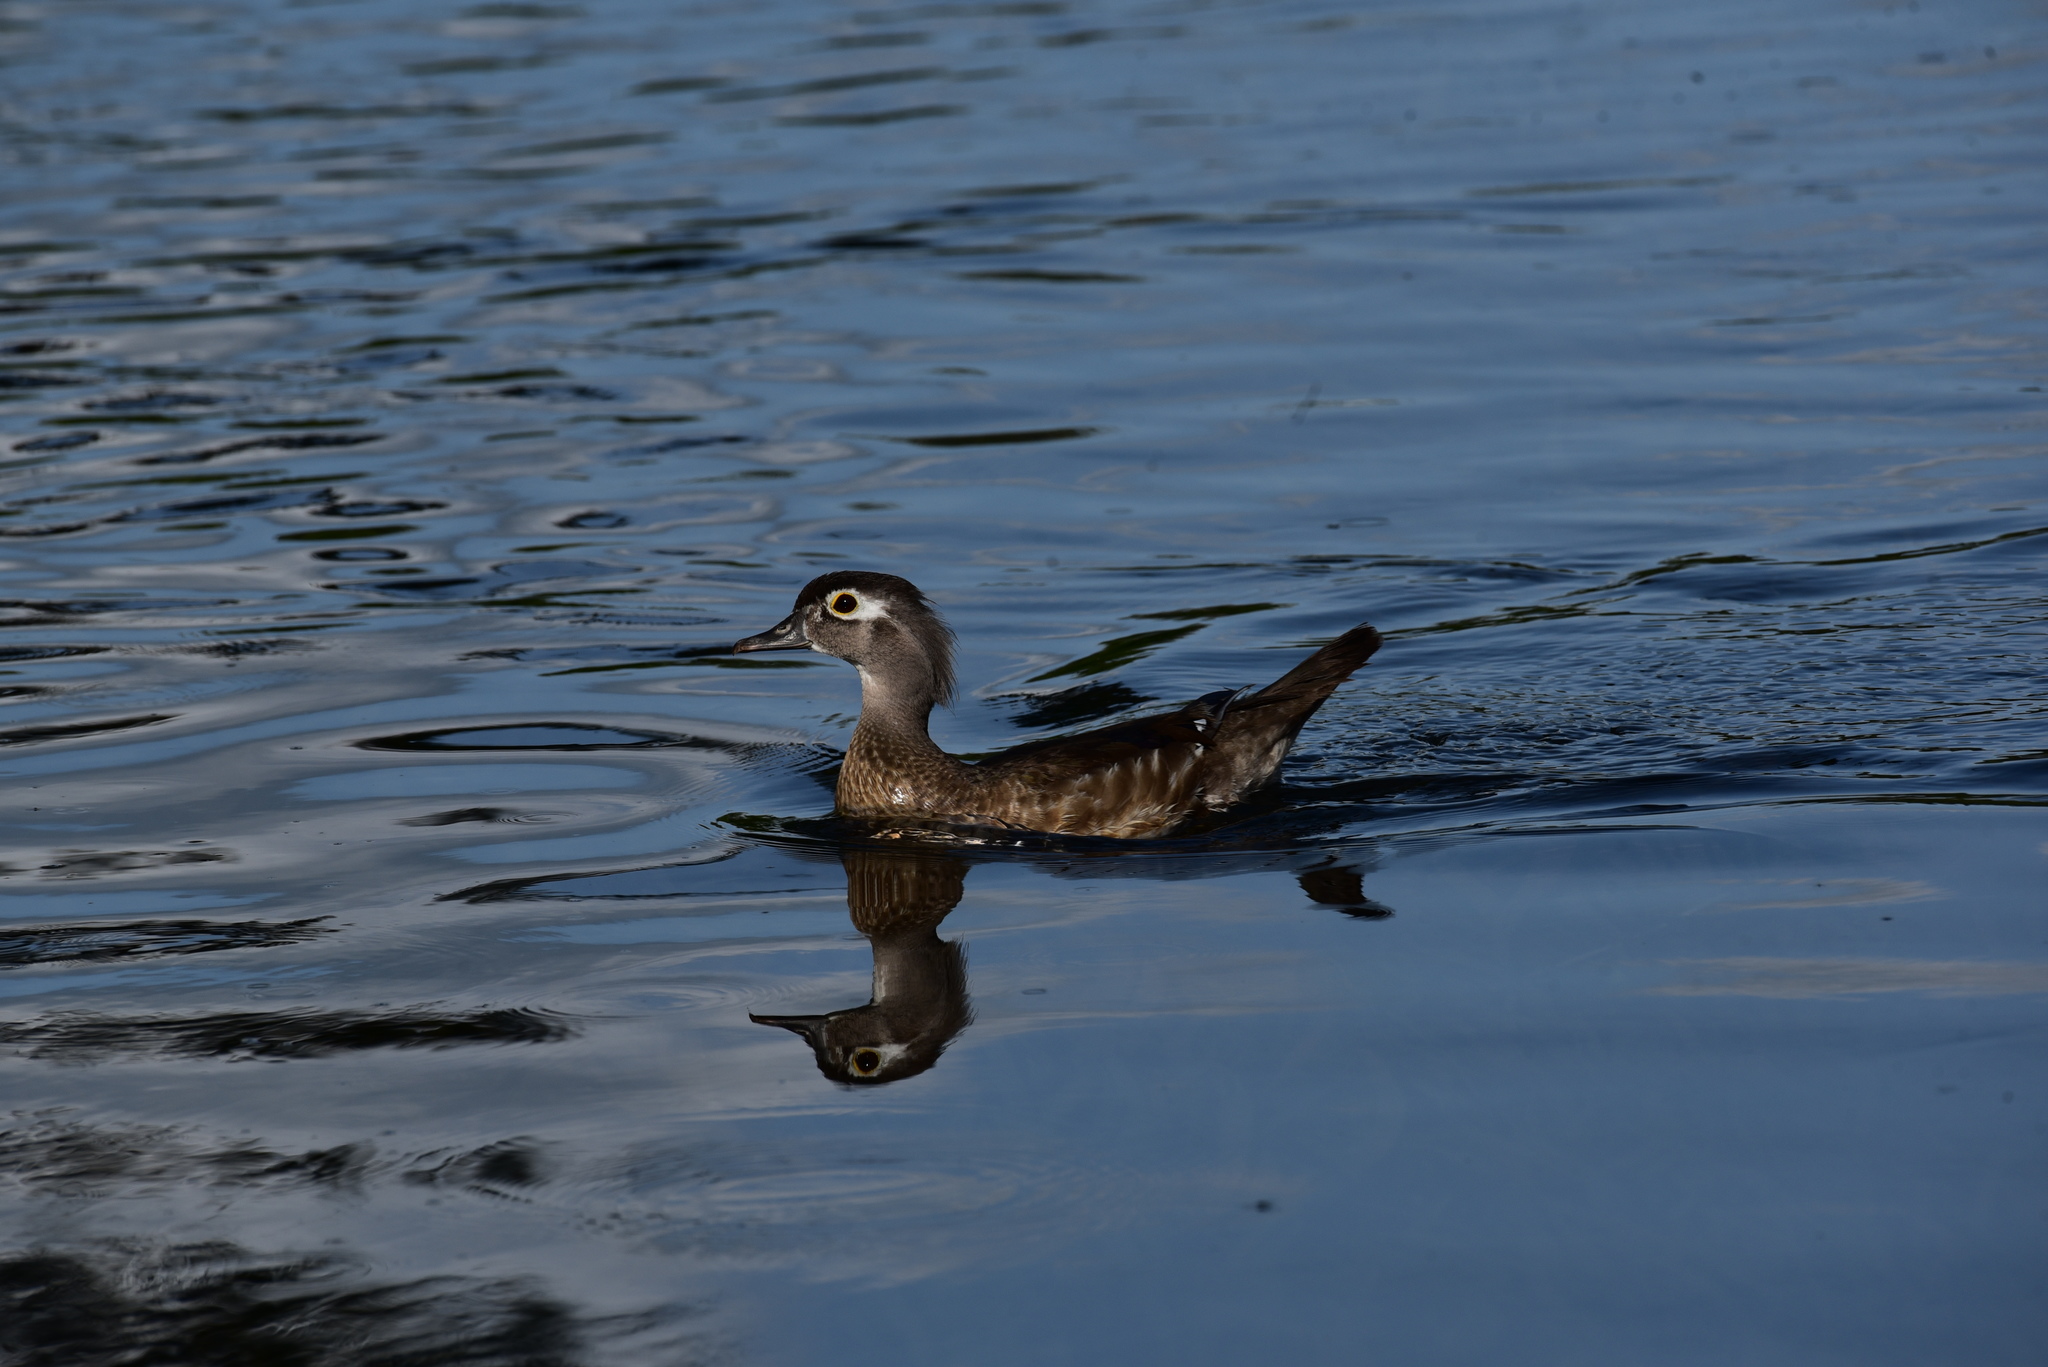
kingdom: Animalia
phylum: Chordata
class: Aves
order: Anseriformes
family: Anatidae
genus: Aix
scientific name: Aix sponsa
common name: Wood duck
